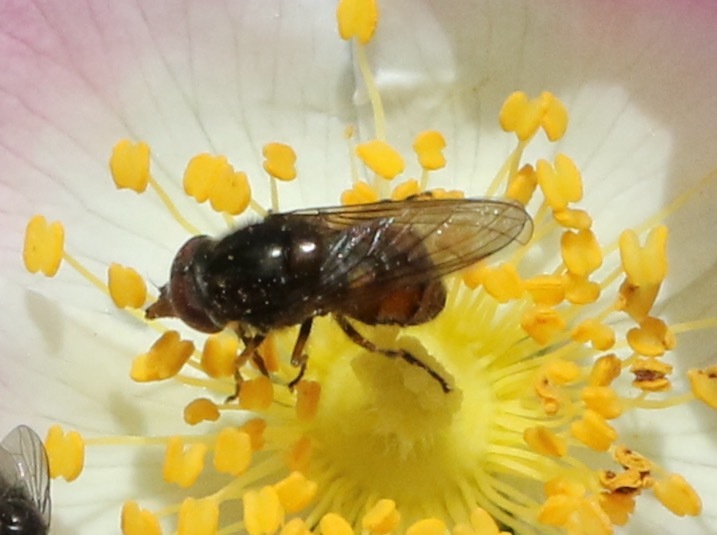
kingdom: Animalia
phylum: Arthropoda
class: Insecta
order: Diptera
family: Syrphidae
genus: Rhingia
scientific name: Rhingia campestris
